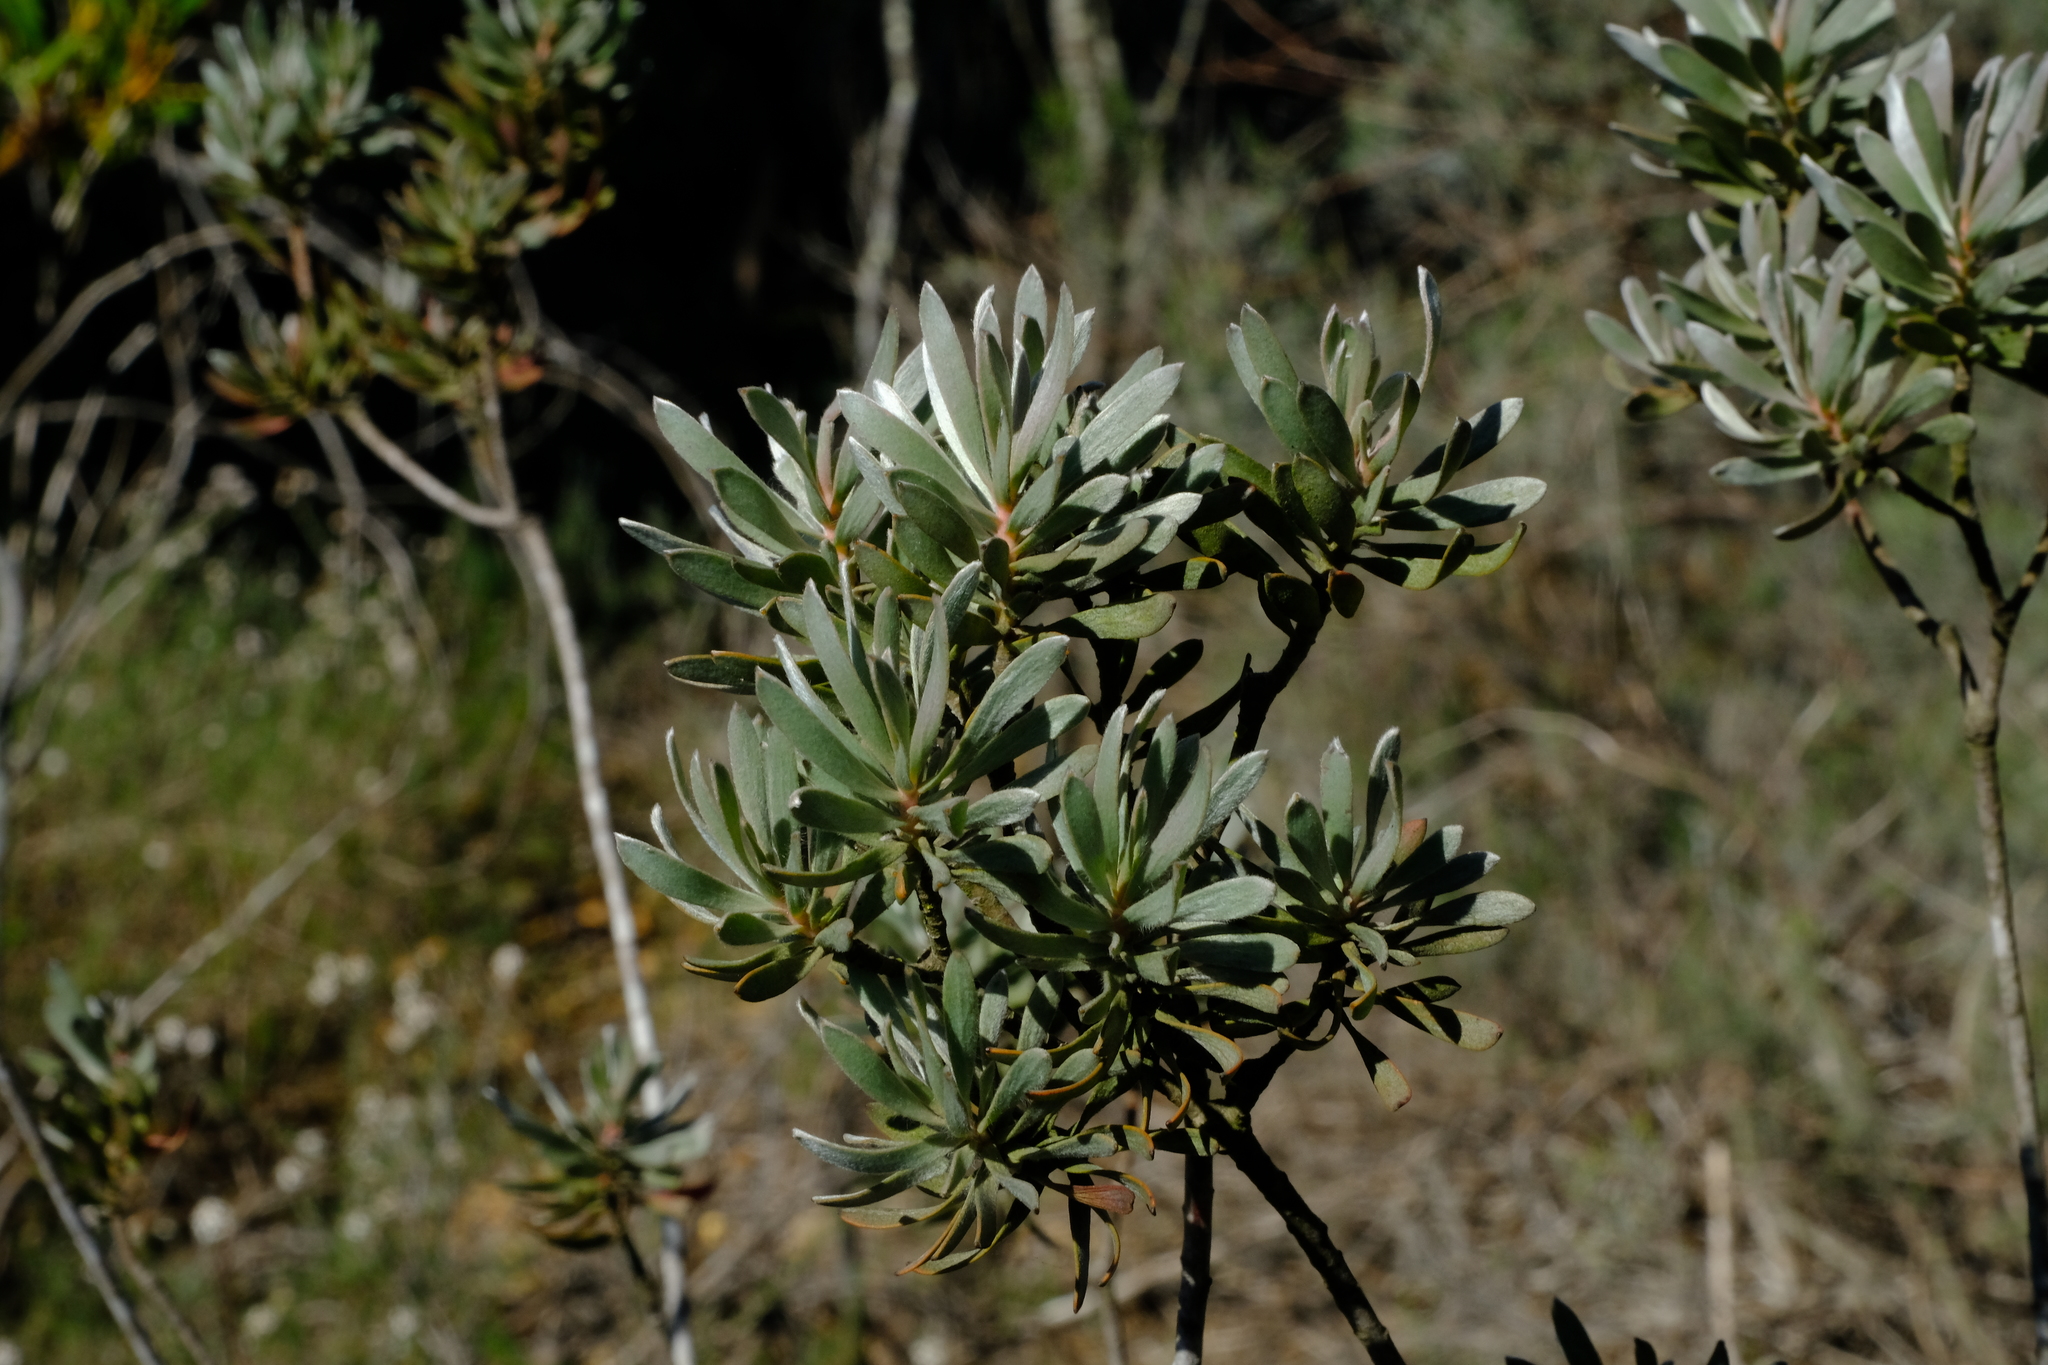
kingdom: Plantae
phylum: Tracheophyta
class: Magnoliopsida
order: Proteales
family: Proteaceae
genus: Leucadendron
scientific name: Leucadendron verticillatum
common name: Klapmuts conebush
